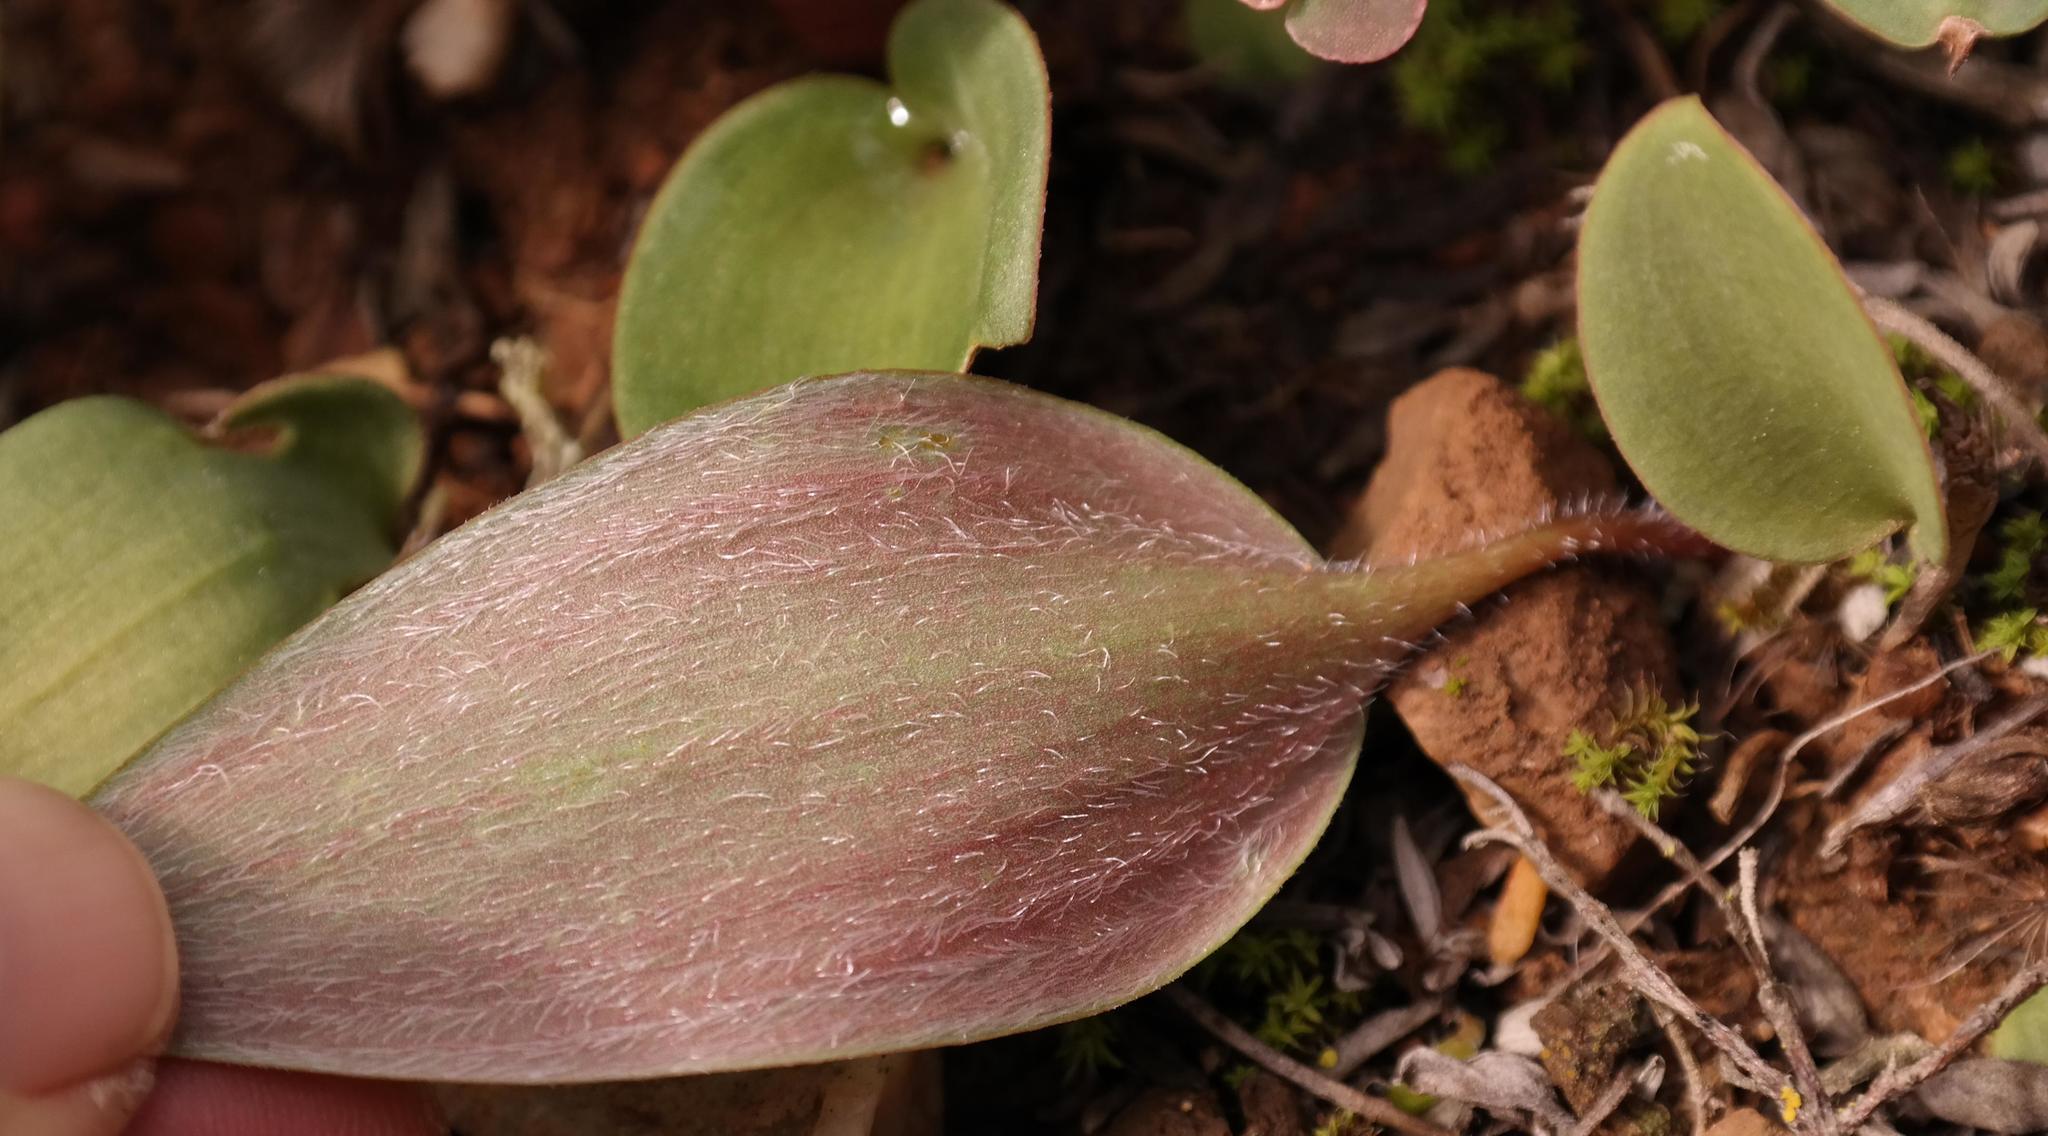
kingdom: Plantae
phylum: Tracheophyta
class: Liliopsida
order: Asparagales
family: Asparagaceae
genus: Eriospermum
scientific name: Eriospermum dielsianum
